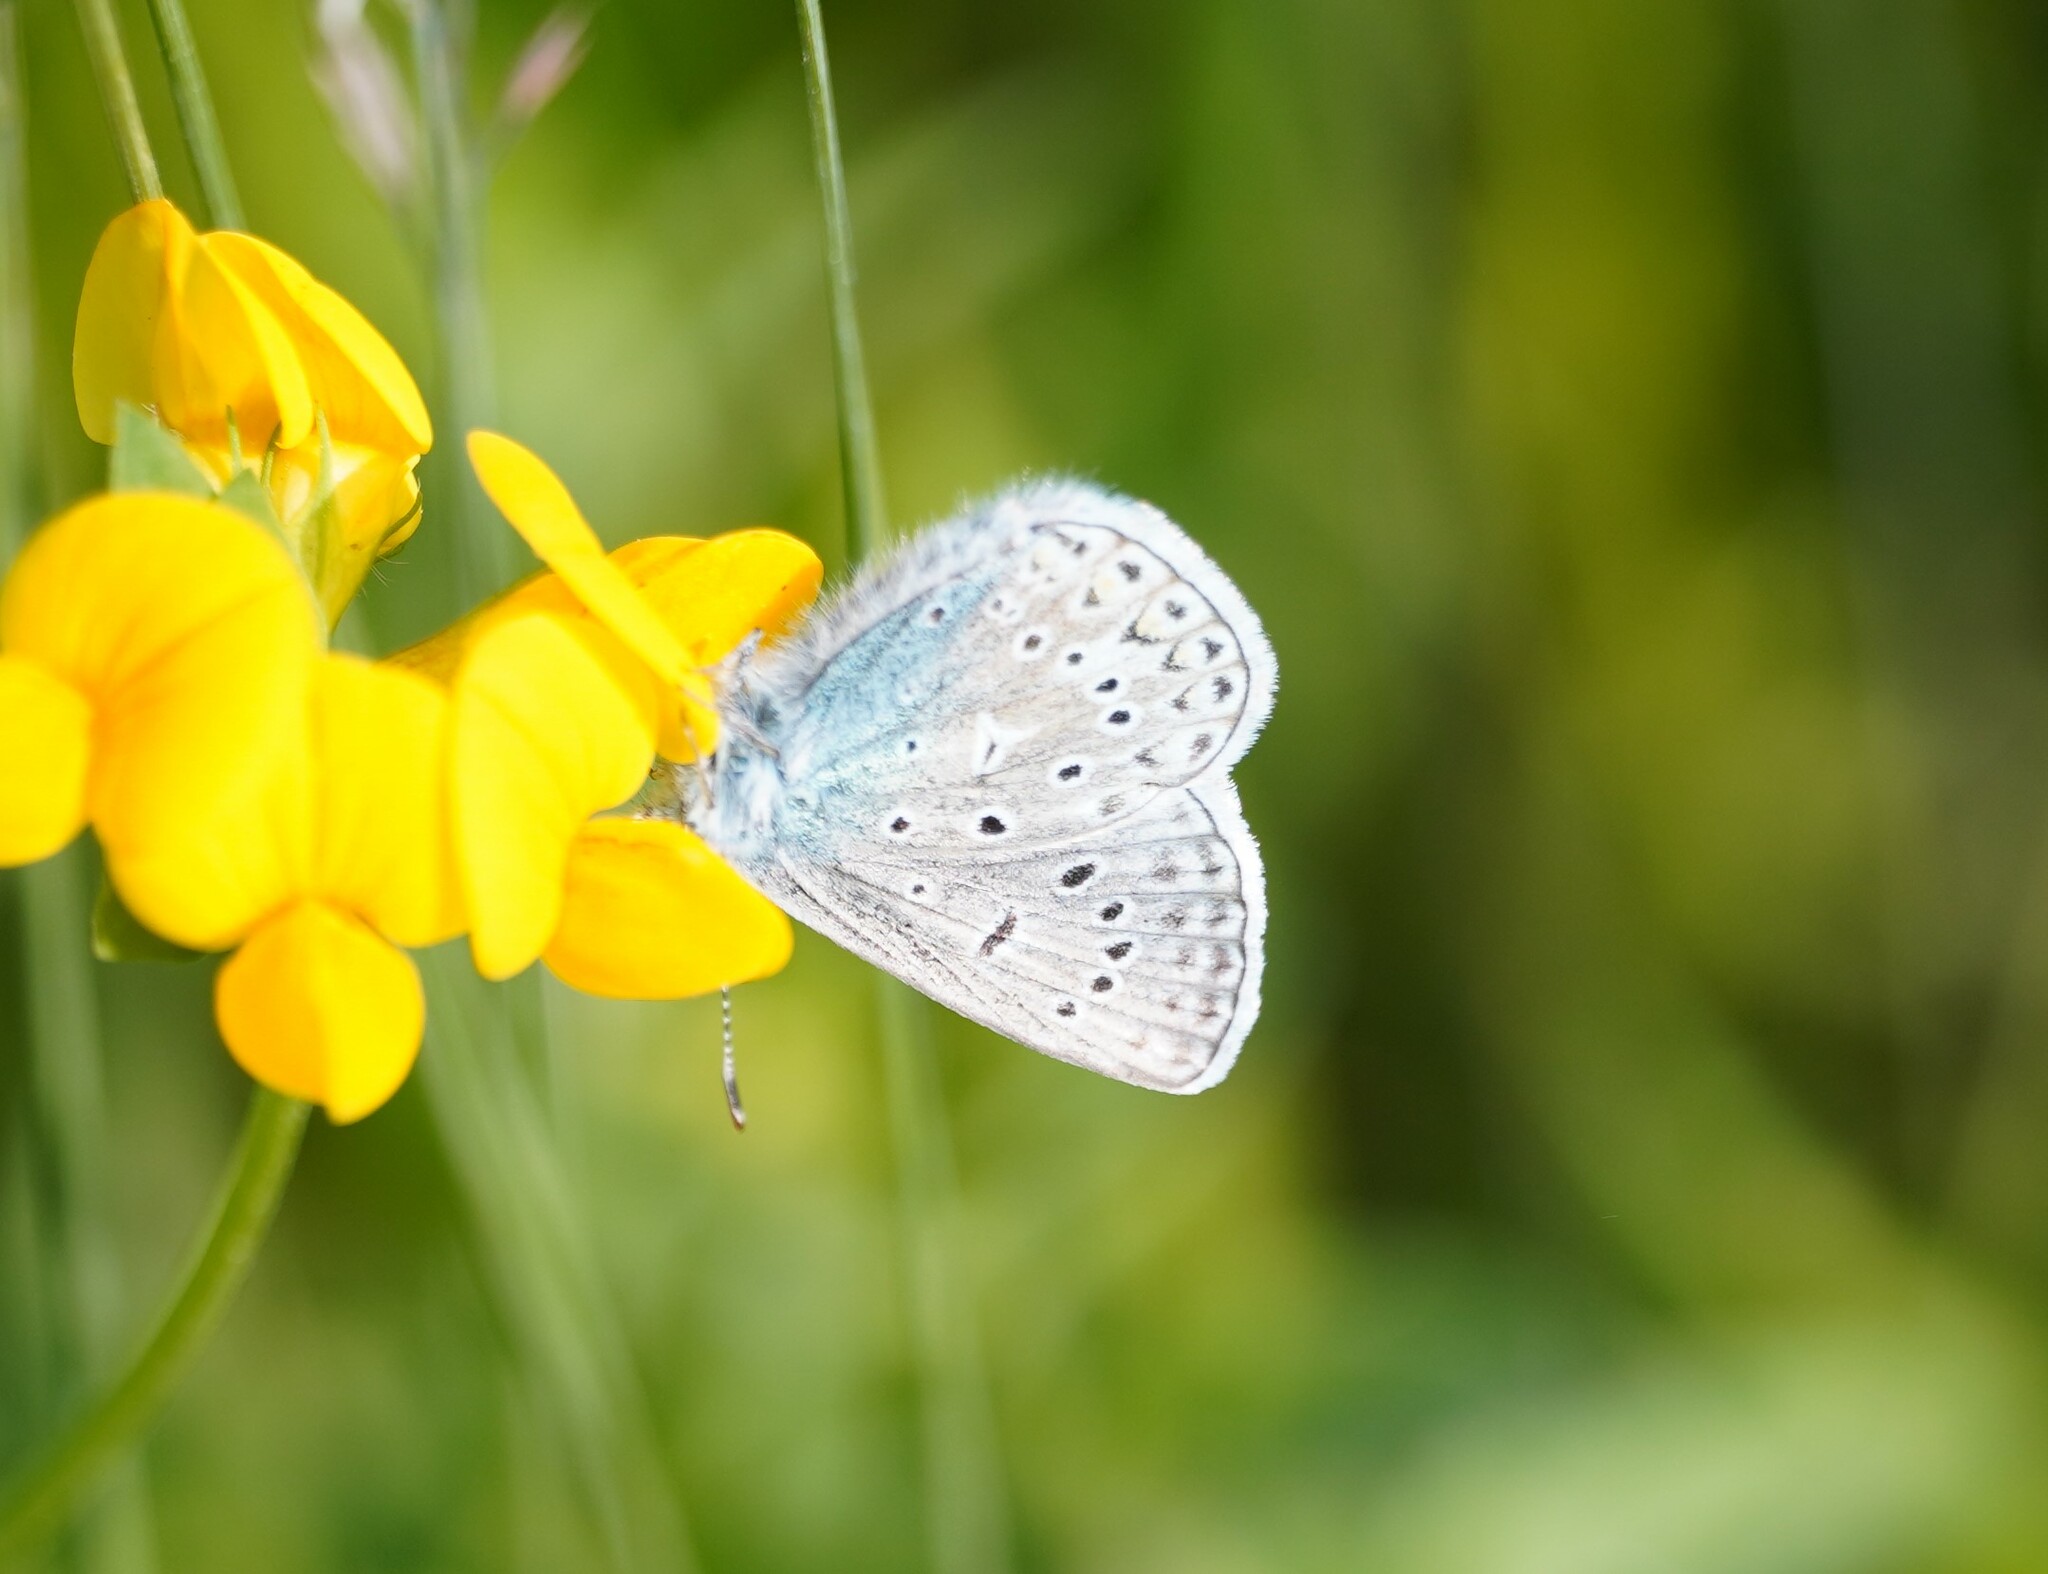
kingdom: Animalia
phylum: Arthropoda
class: Insecta
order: Lepidoptera
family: Lycaenidae
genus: Polyommatus
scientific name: Polyommatus icarus
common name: Common blue
